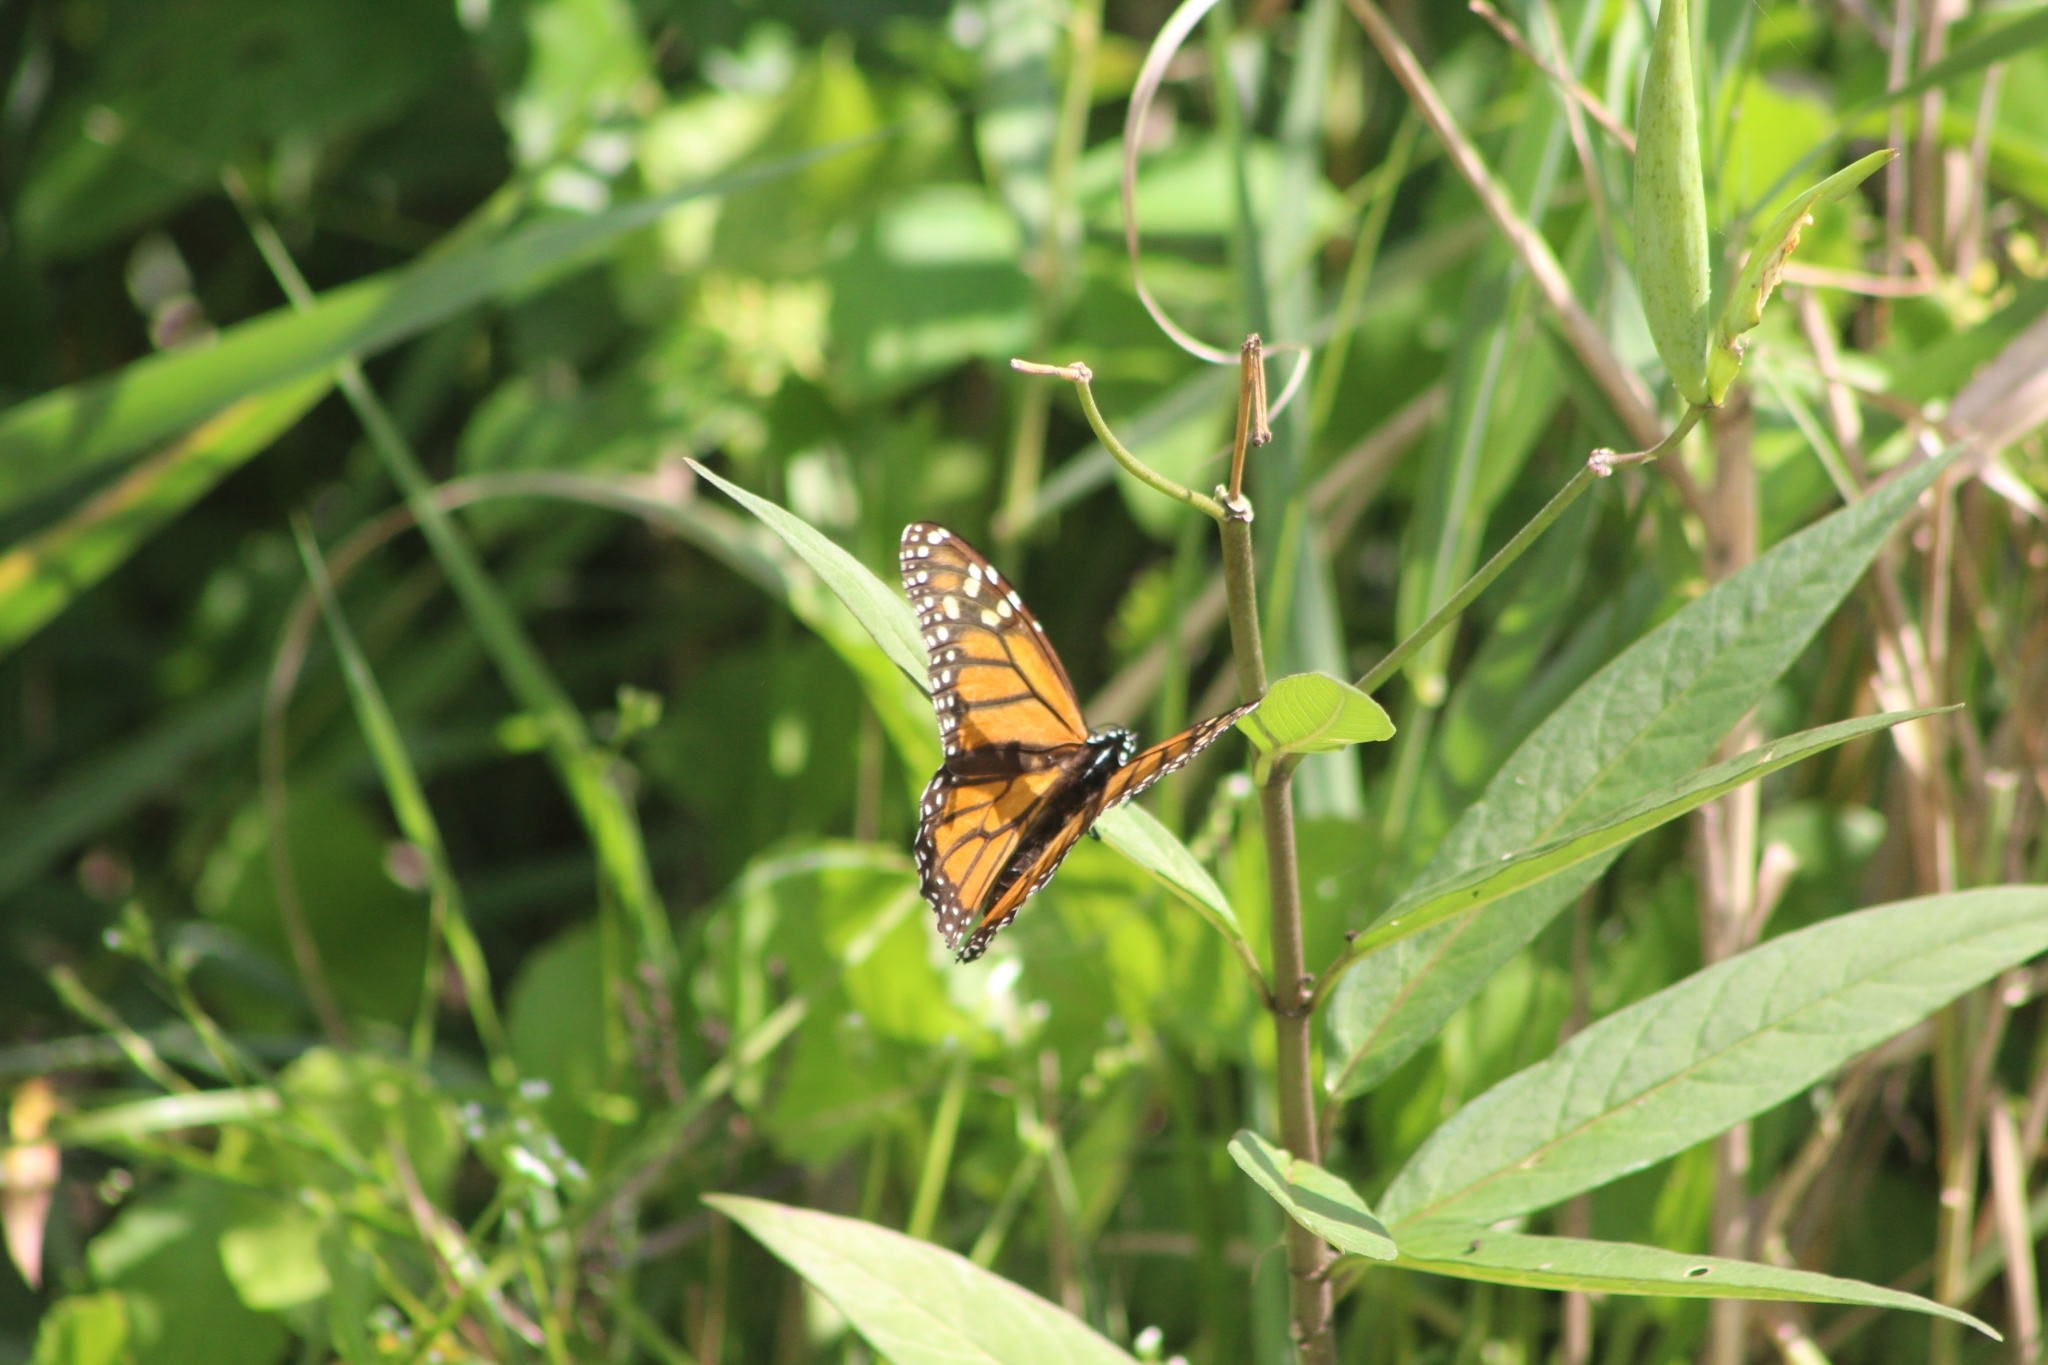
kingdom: Animalia
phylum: Arthropoda
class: Insecta
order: Lepidoptera
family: Nymphalidae
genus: Danaus
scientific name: Danaus plexippus
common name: Monarch
